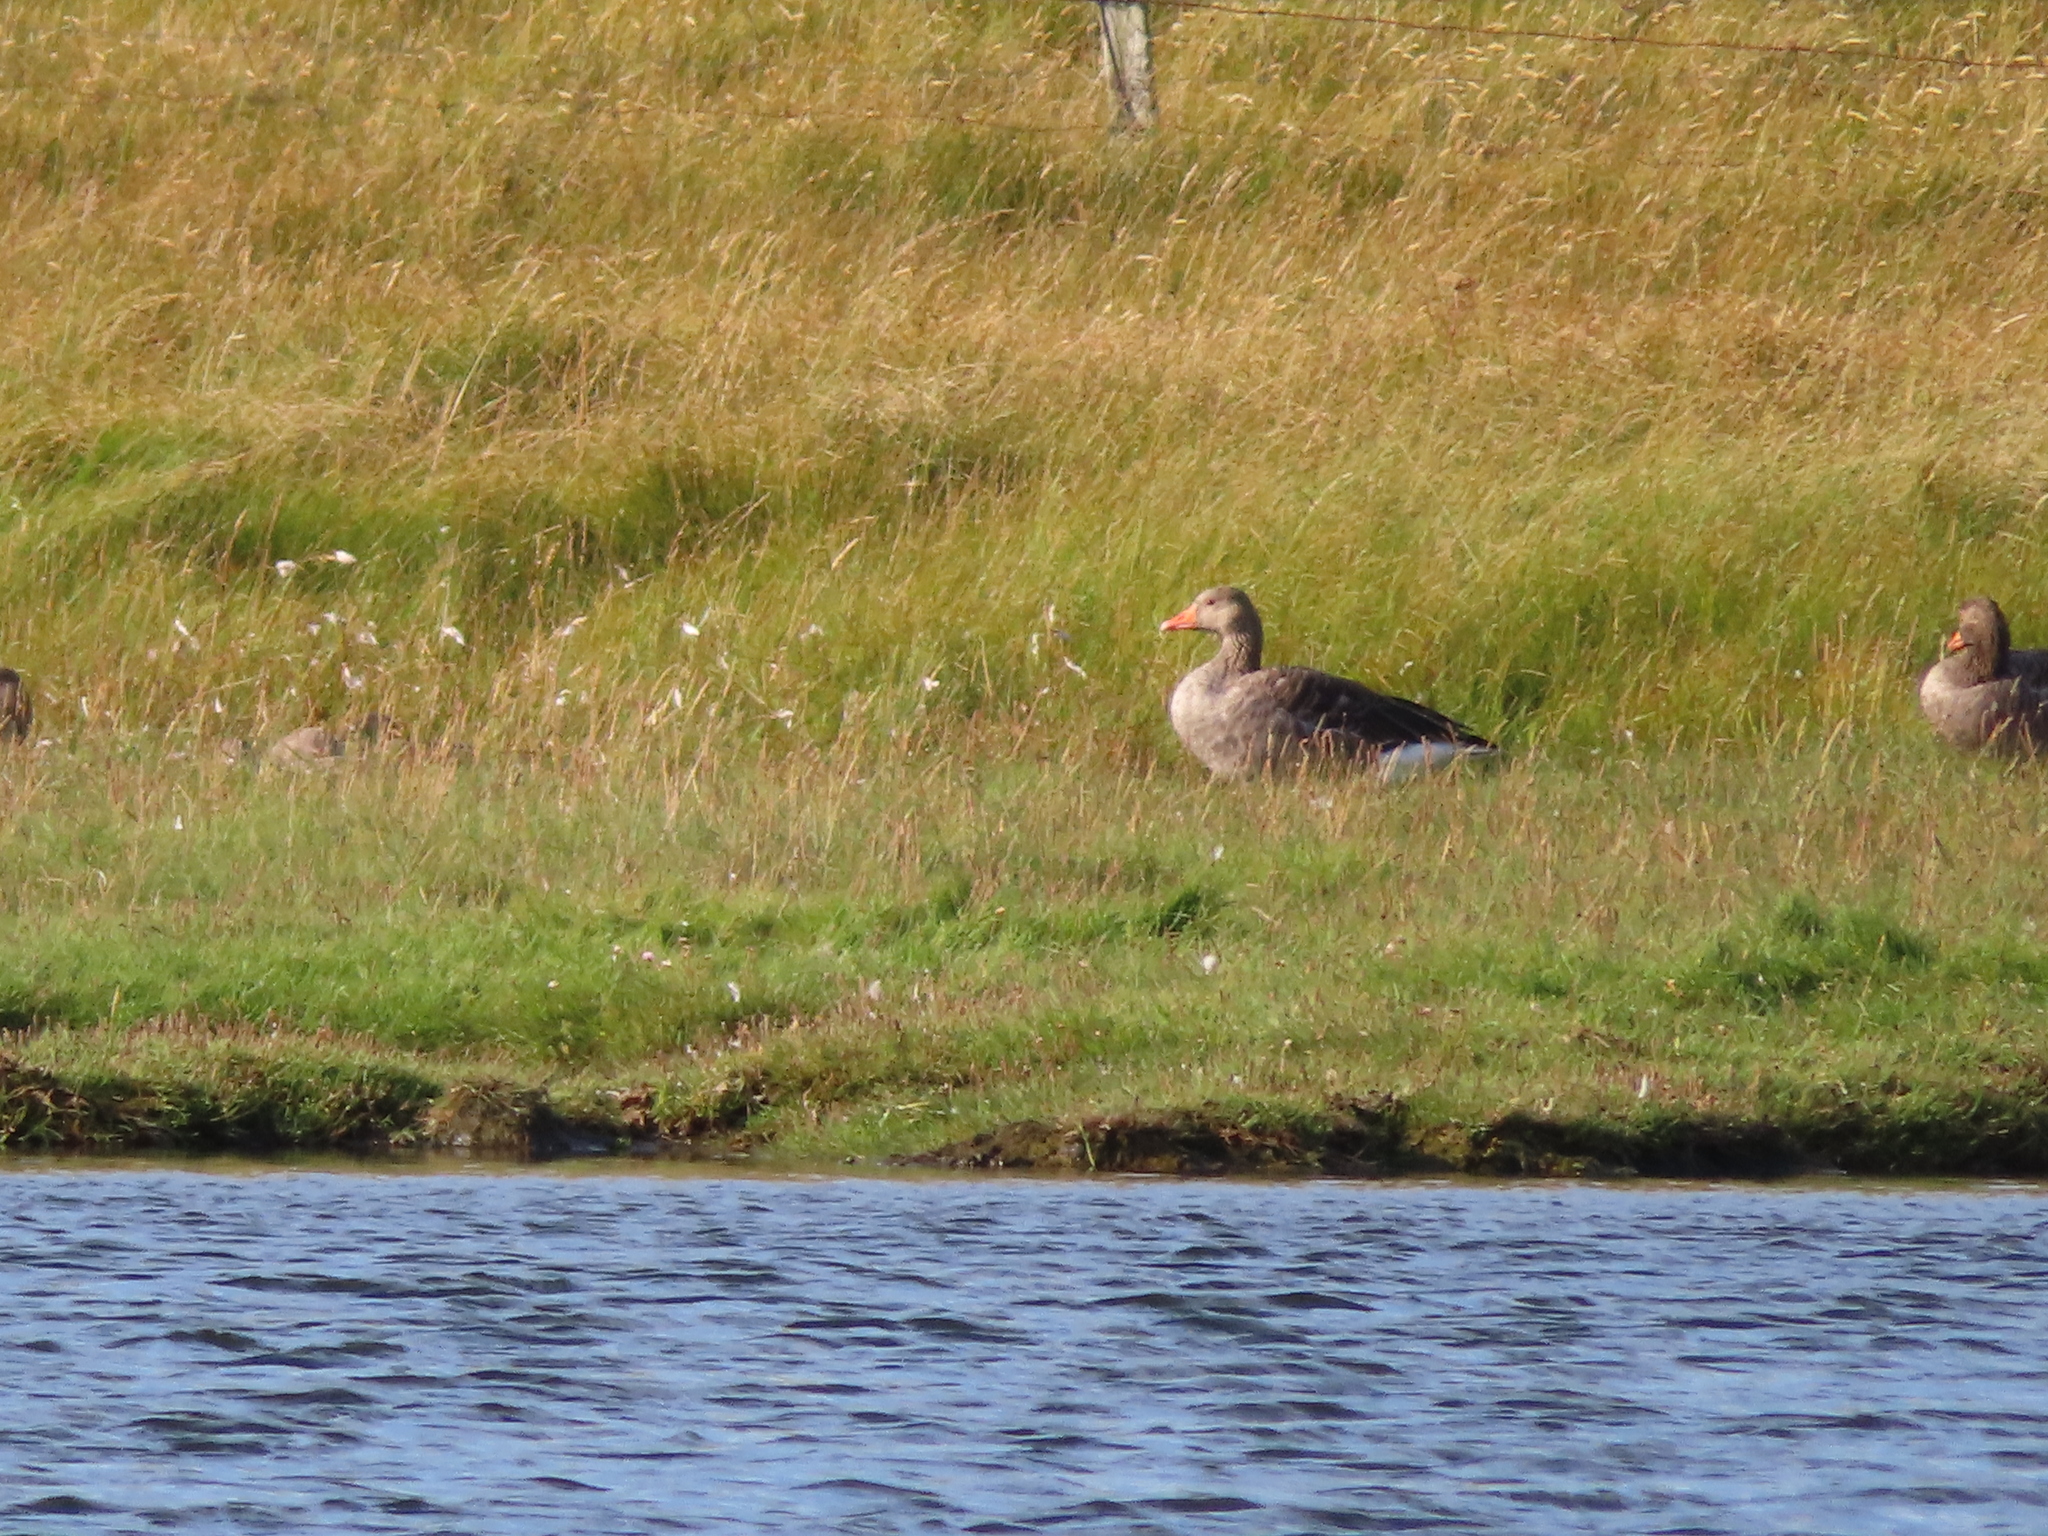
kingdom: Animalia
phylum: Chordata
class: Aves
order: Anseriformes
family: Anatidae
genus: Anser
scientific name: Anser anser
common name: Greylag goose
